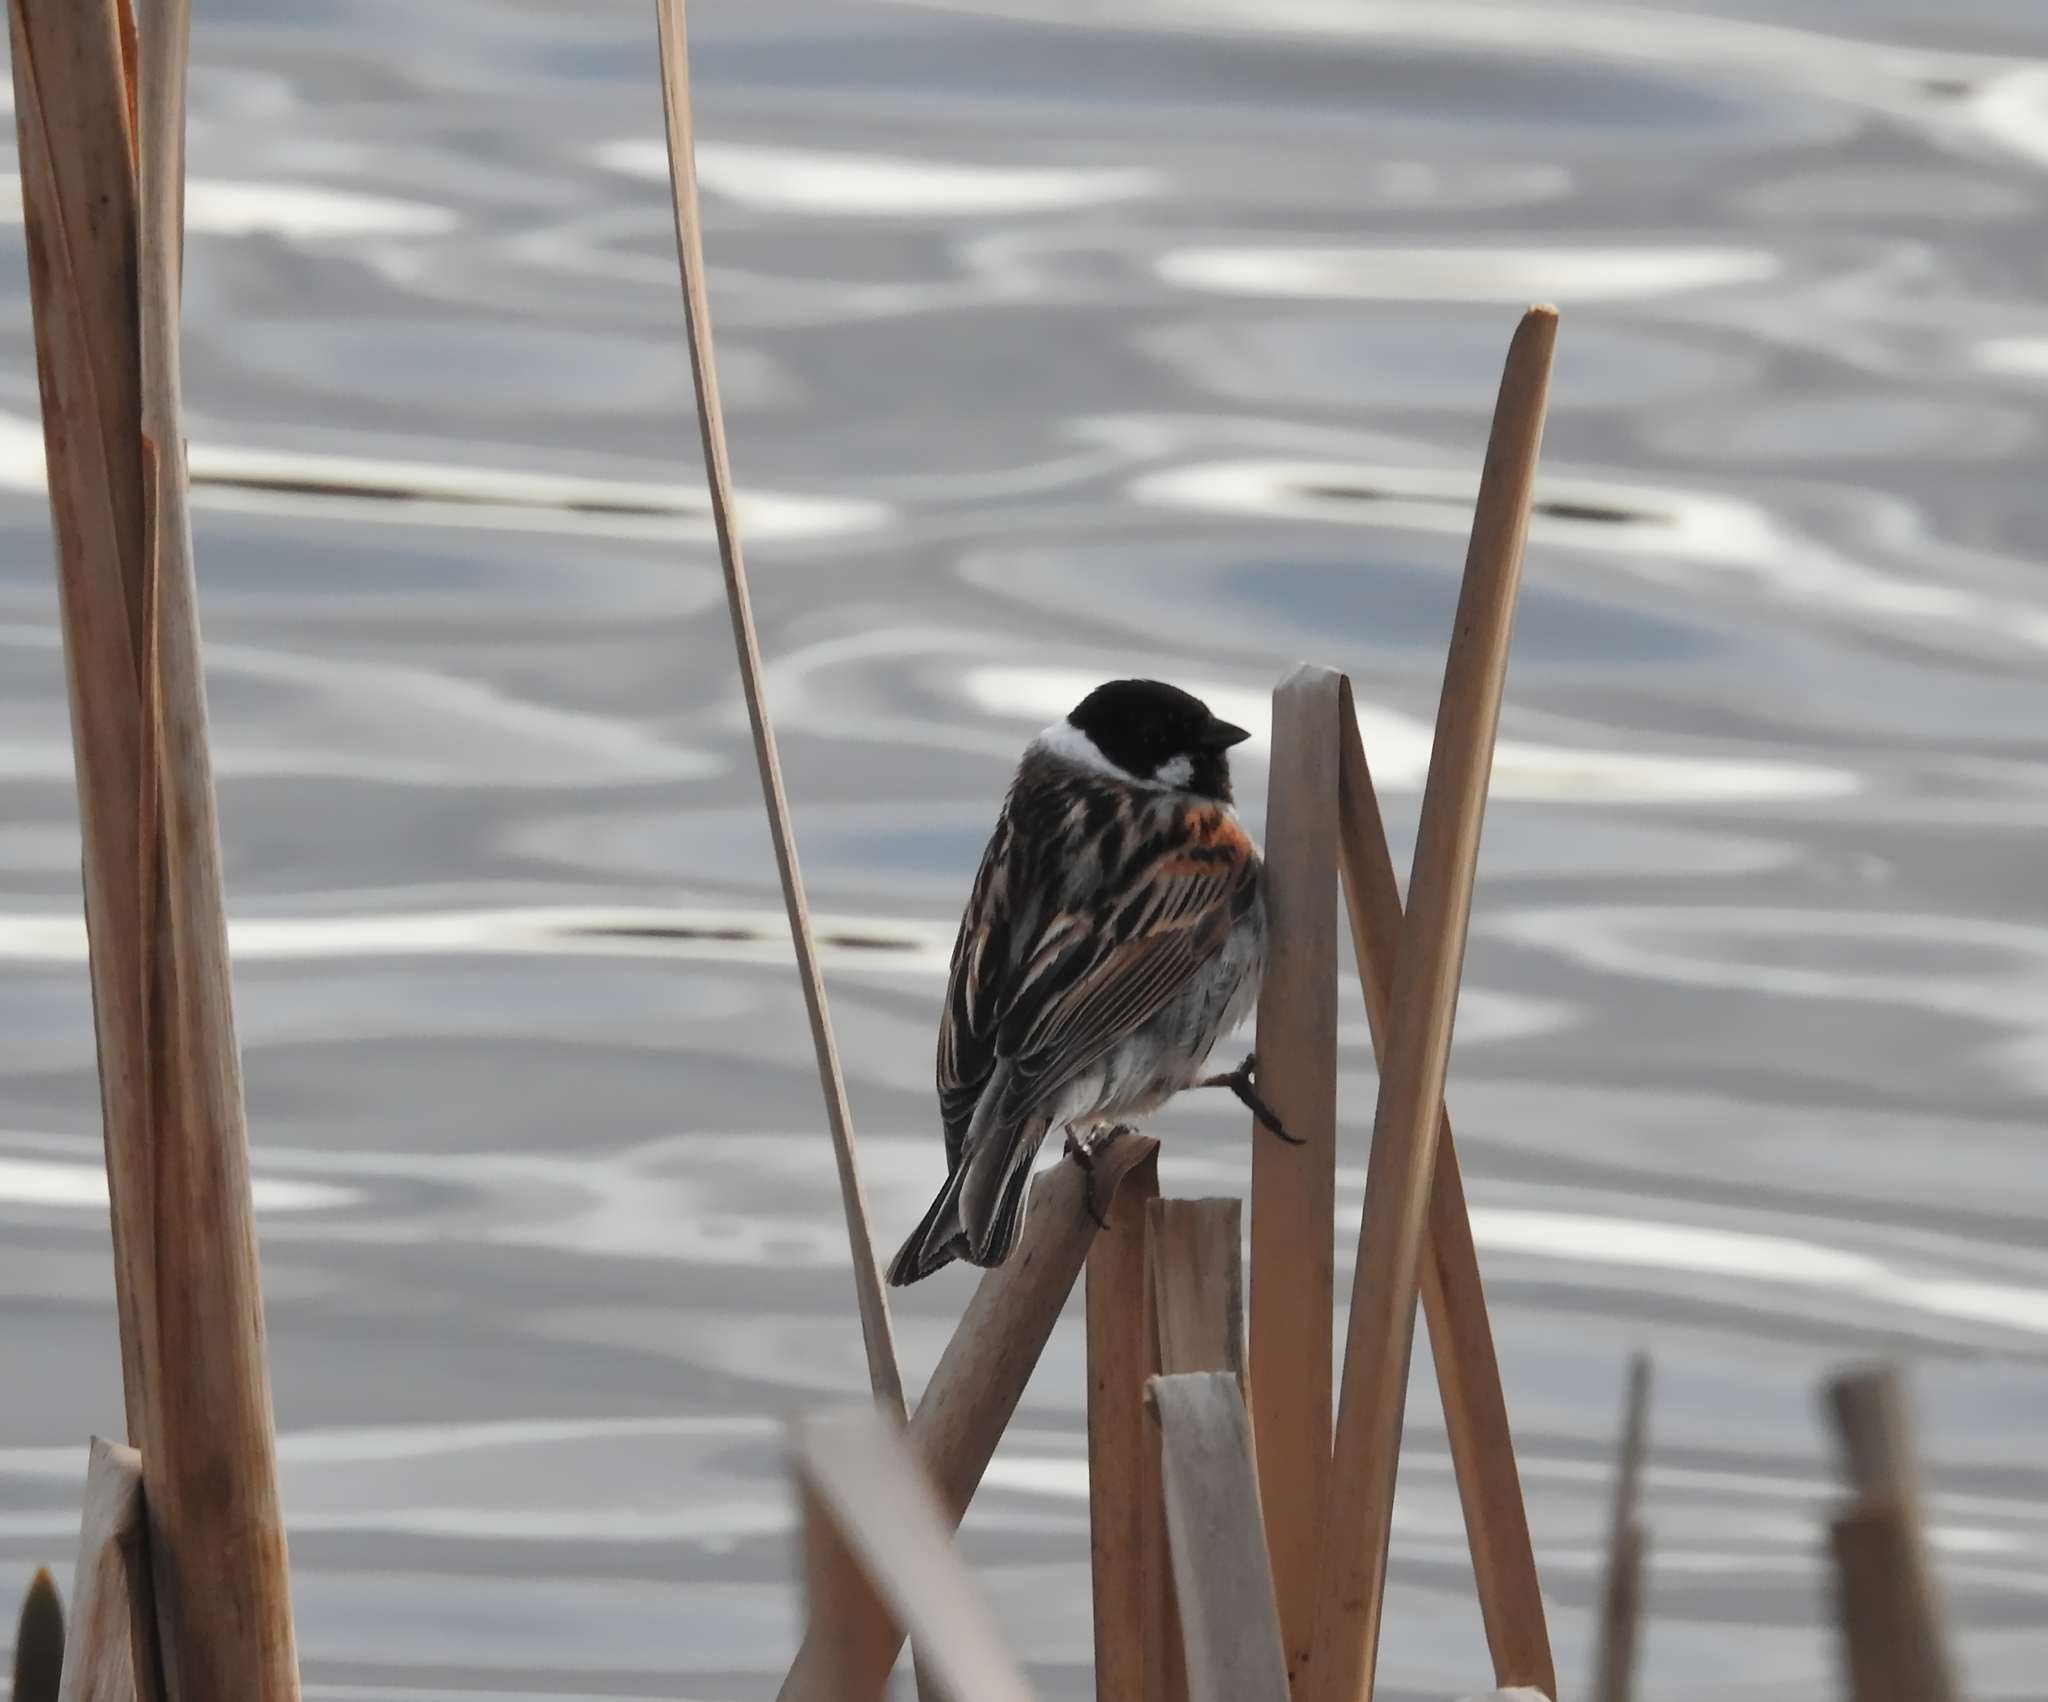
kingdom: Animalia
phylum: Chordata
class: Aves
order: Passeriformes
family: Emberizidae
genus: Emberiza
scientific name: Emberiza schoeniclus
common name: Reed bunting
